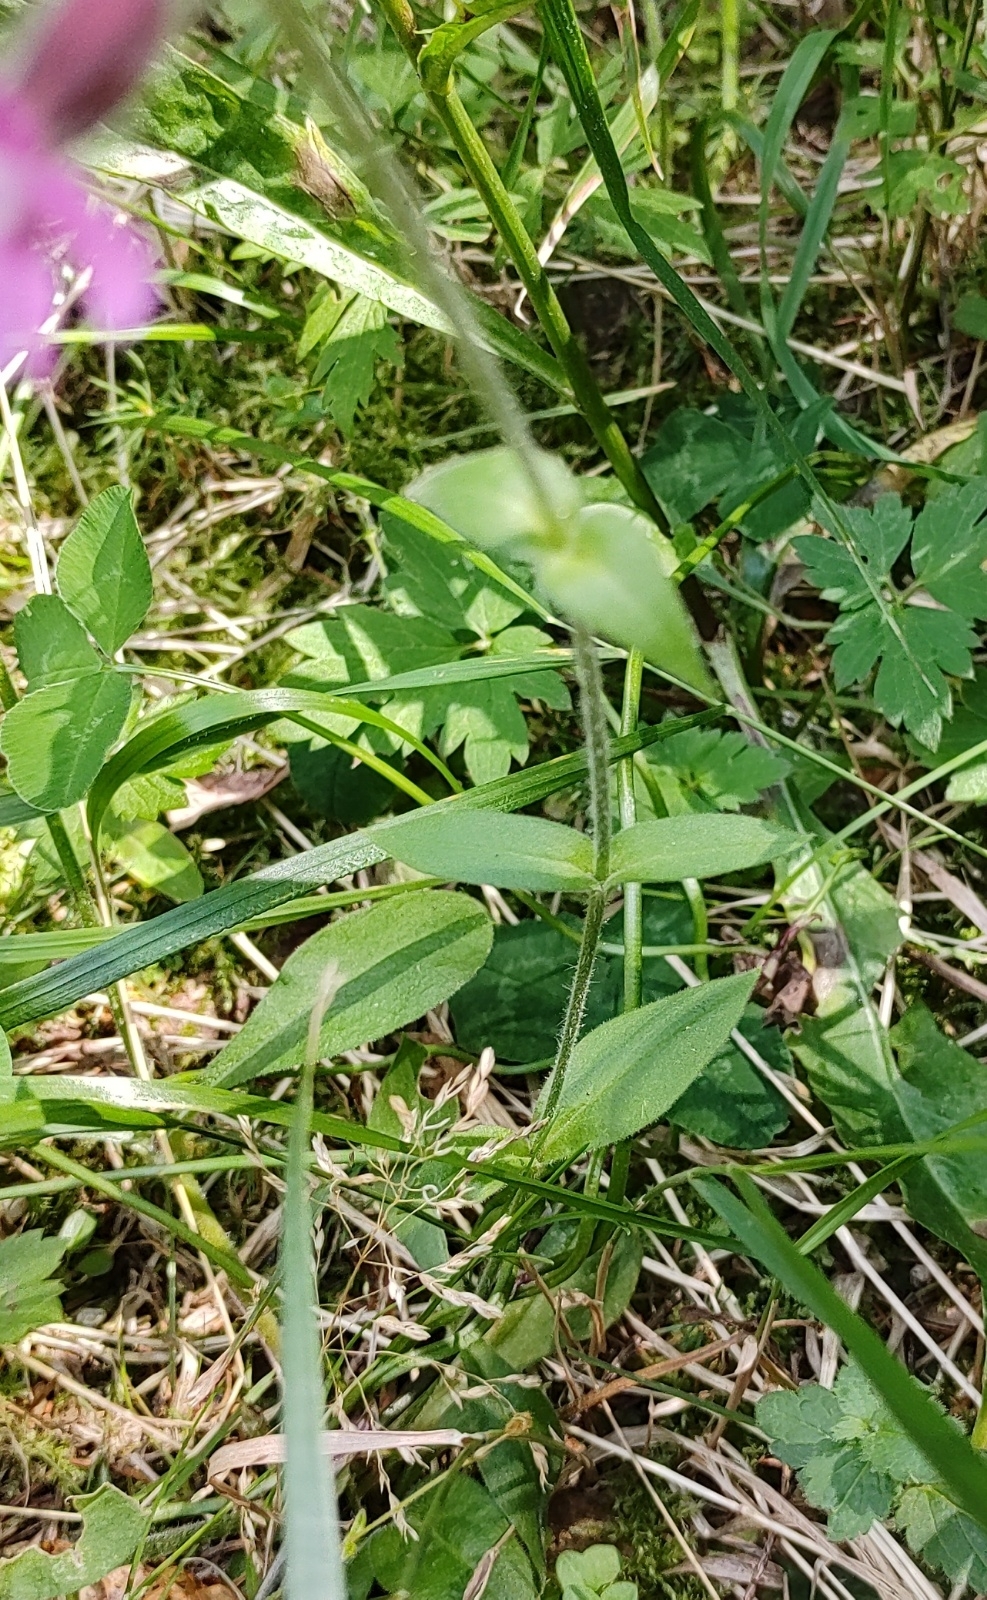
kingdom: Plantae
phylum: Tracheophyta
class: Magnoliopsida
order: Caryophyllales
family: Caryophyllaceae
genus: Silene
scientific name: Silene dioica
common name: Red campion
